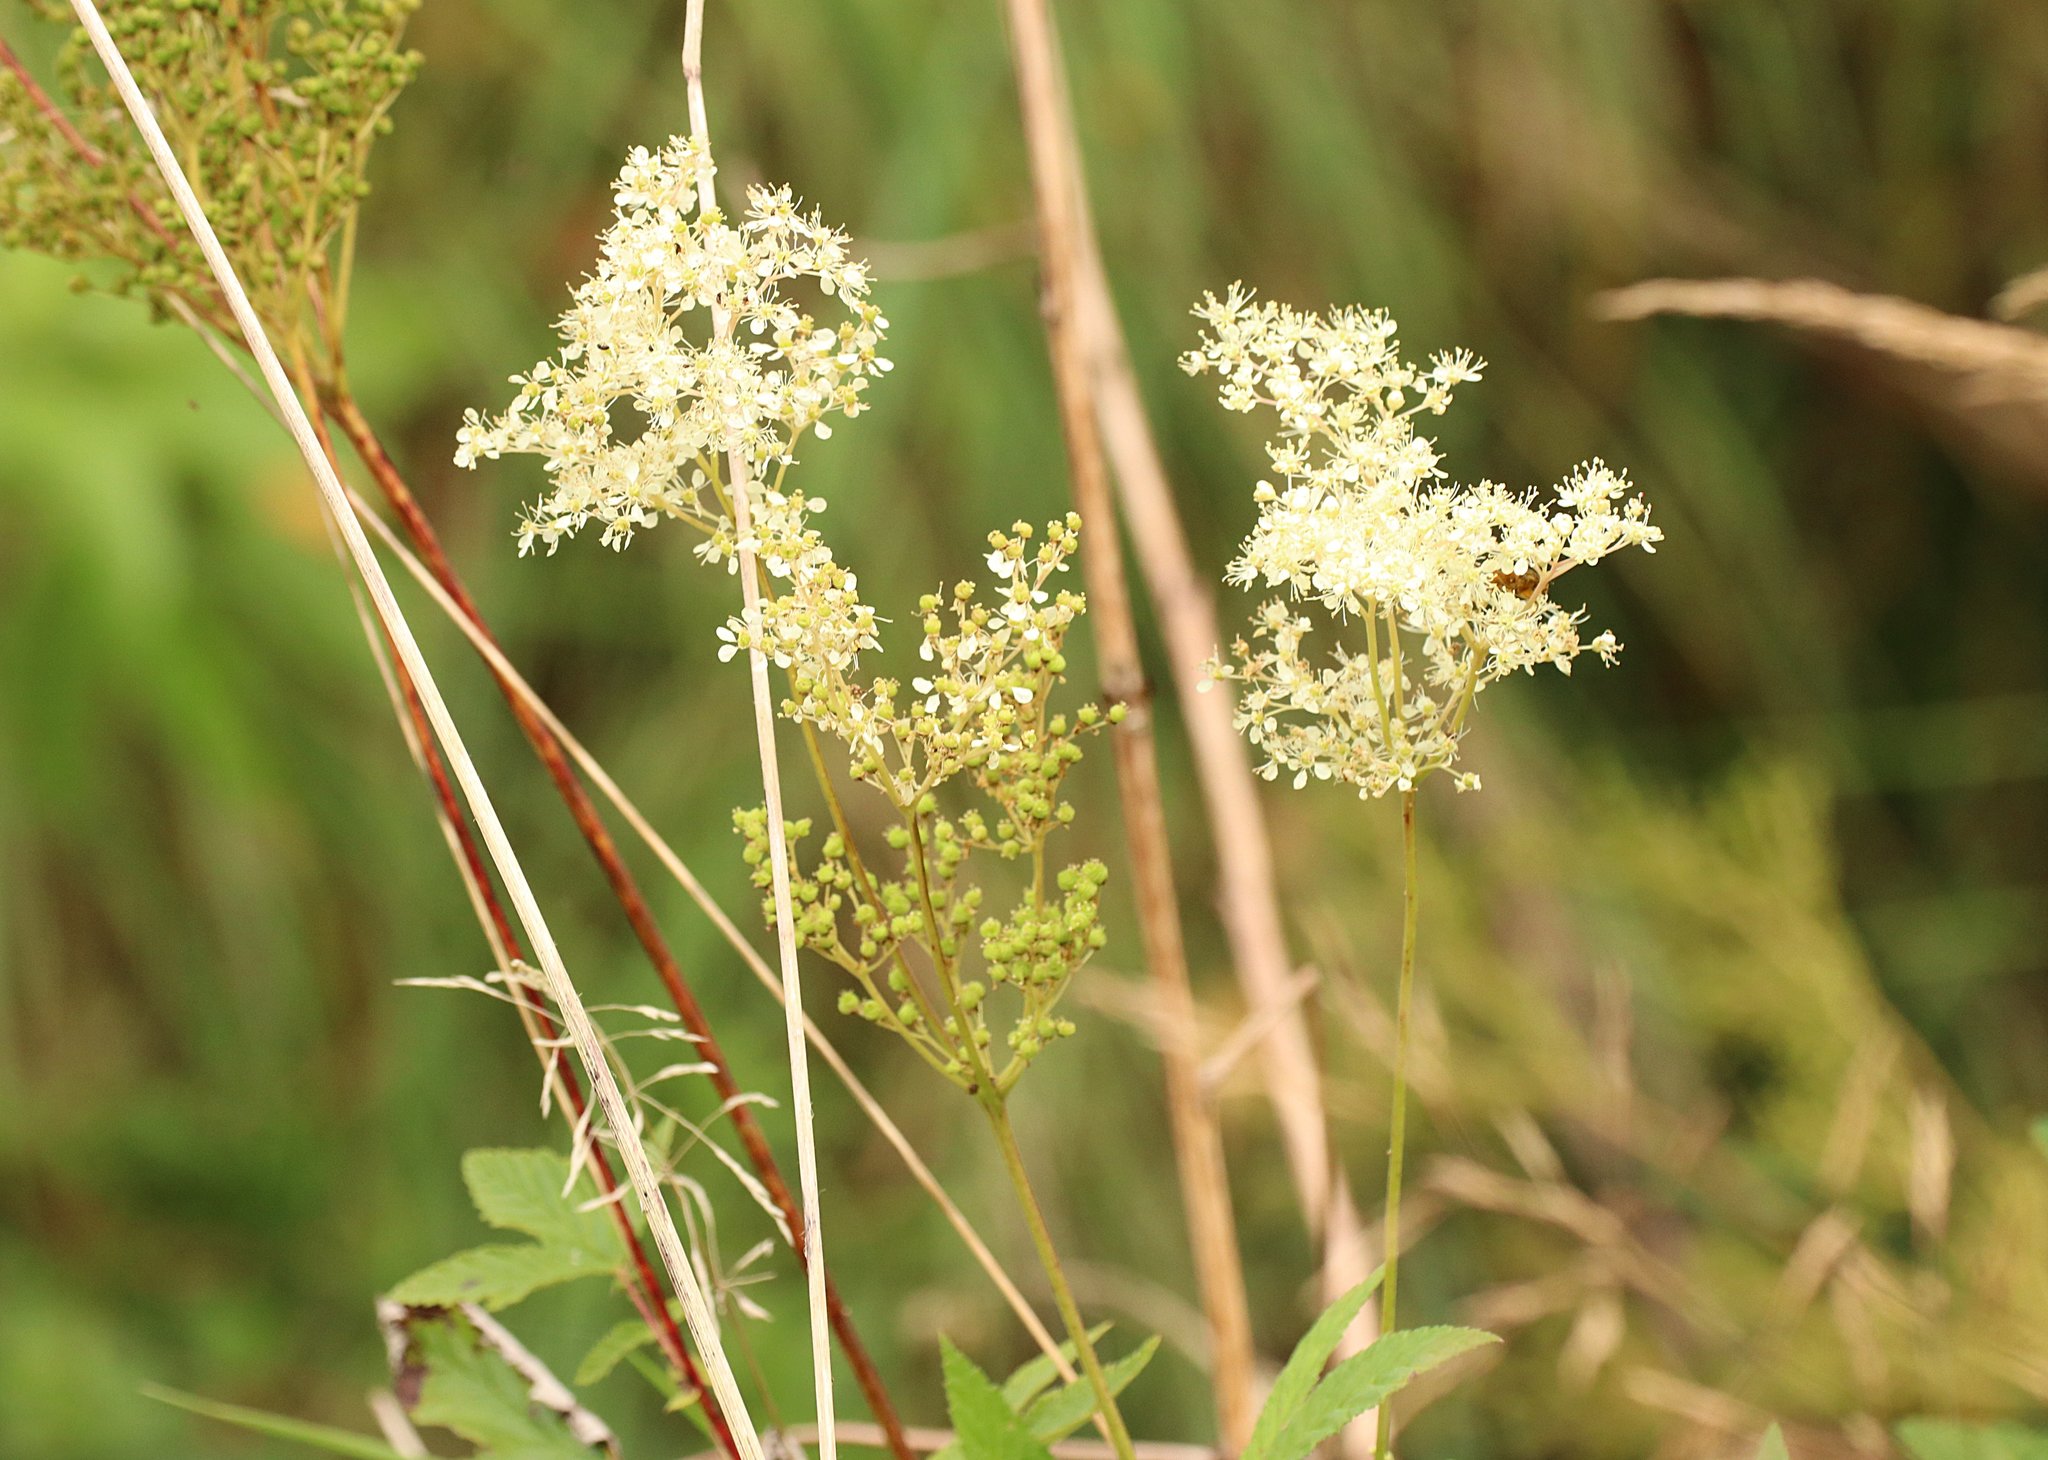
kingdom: Plantae
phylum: Tracheophyta
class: Magnoliopsida
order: Rosales
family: Rosaceae
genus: Filipendula
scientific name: Filipendula ulmaria
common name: Meadowsweet
